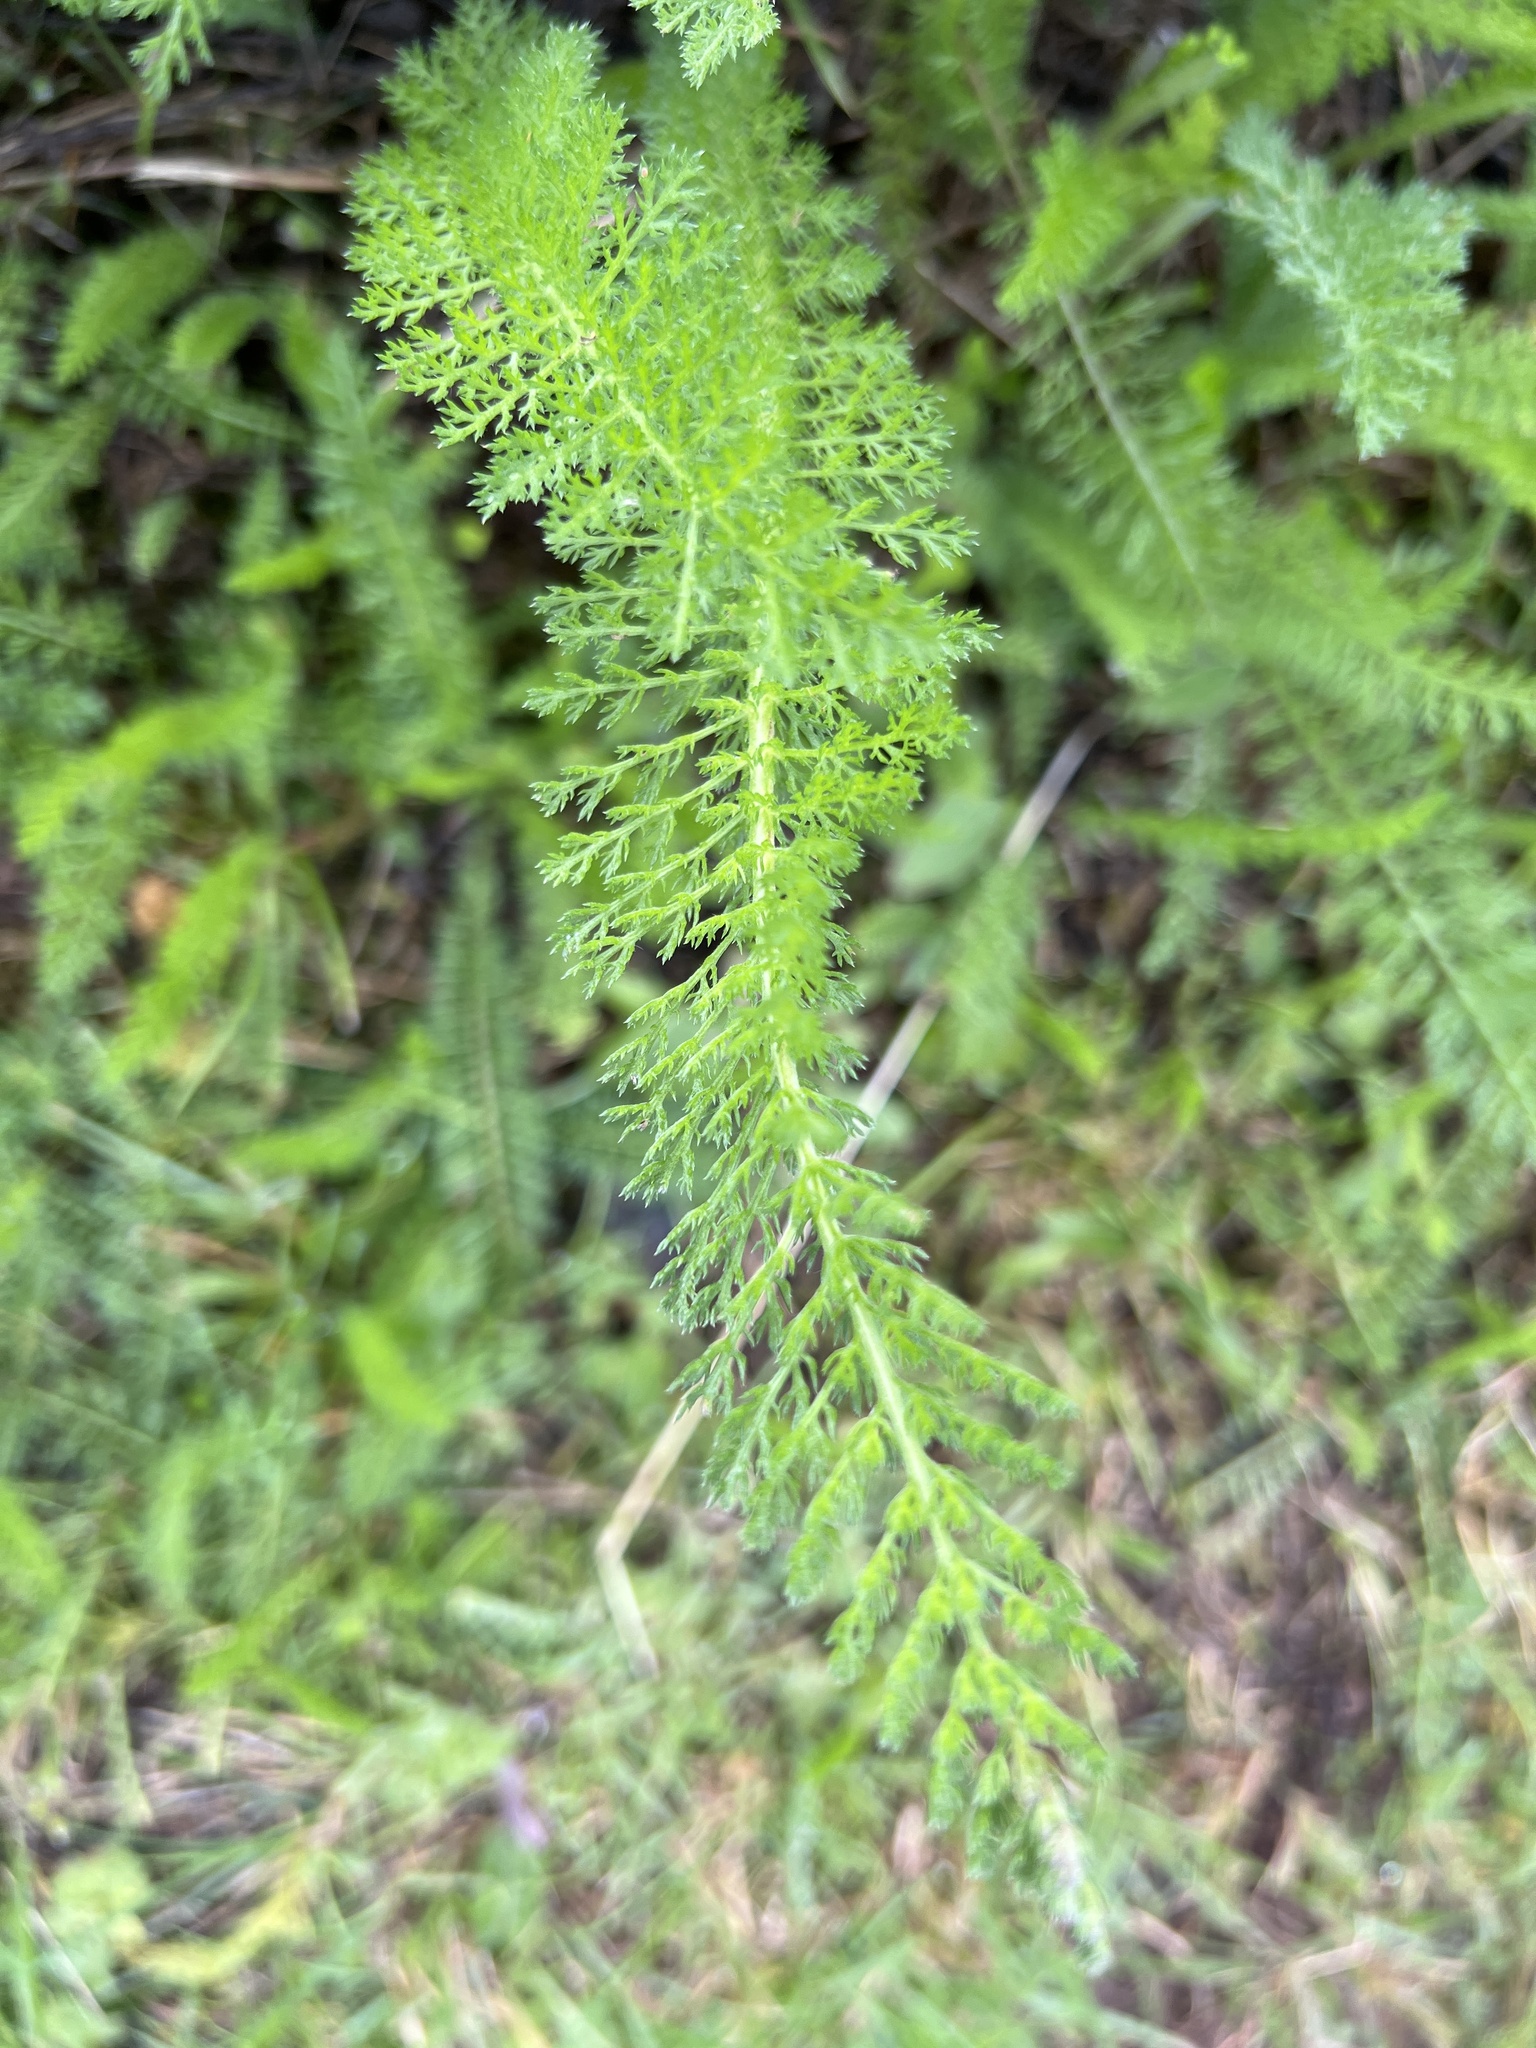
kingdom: Plantae
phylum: Tracheophyta
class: Magnoliopsida
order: Asterales
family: Asteraceae
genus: Achillea
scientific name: Achillea millefolium
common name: Yarrow
